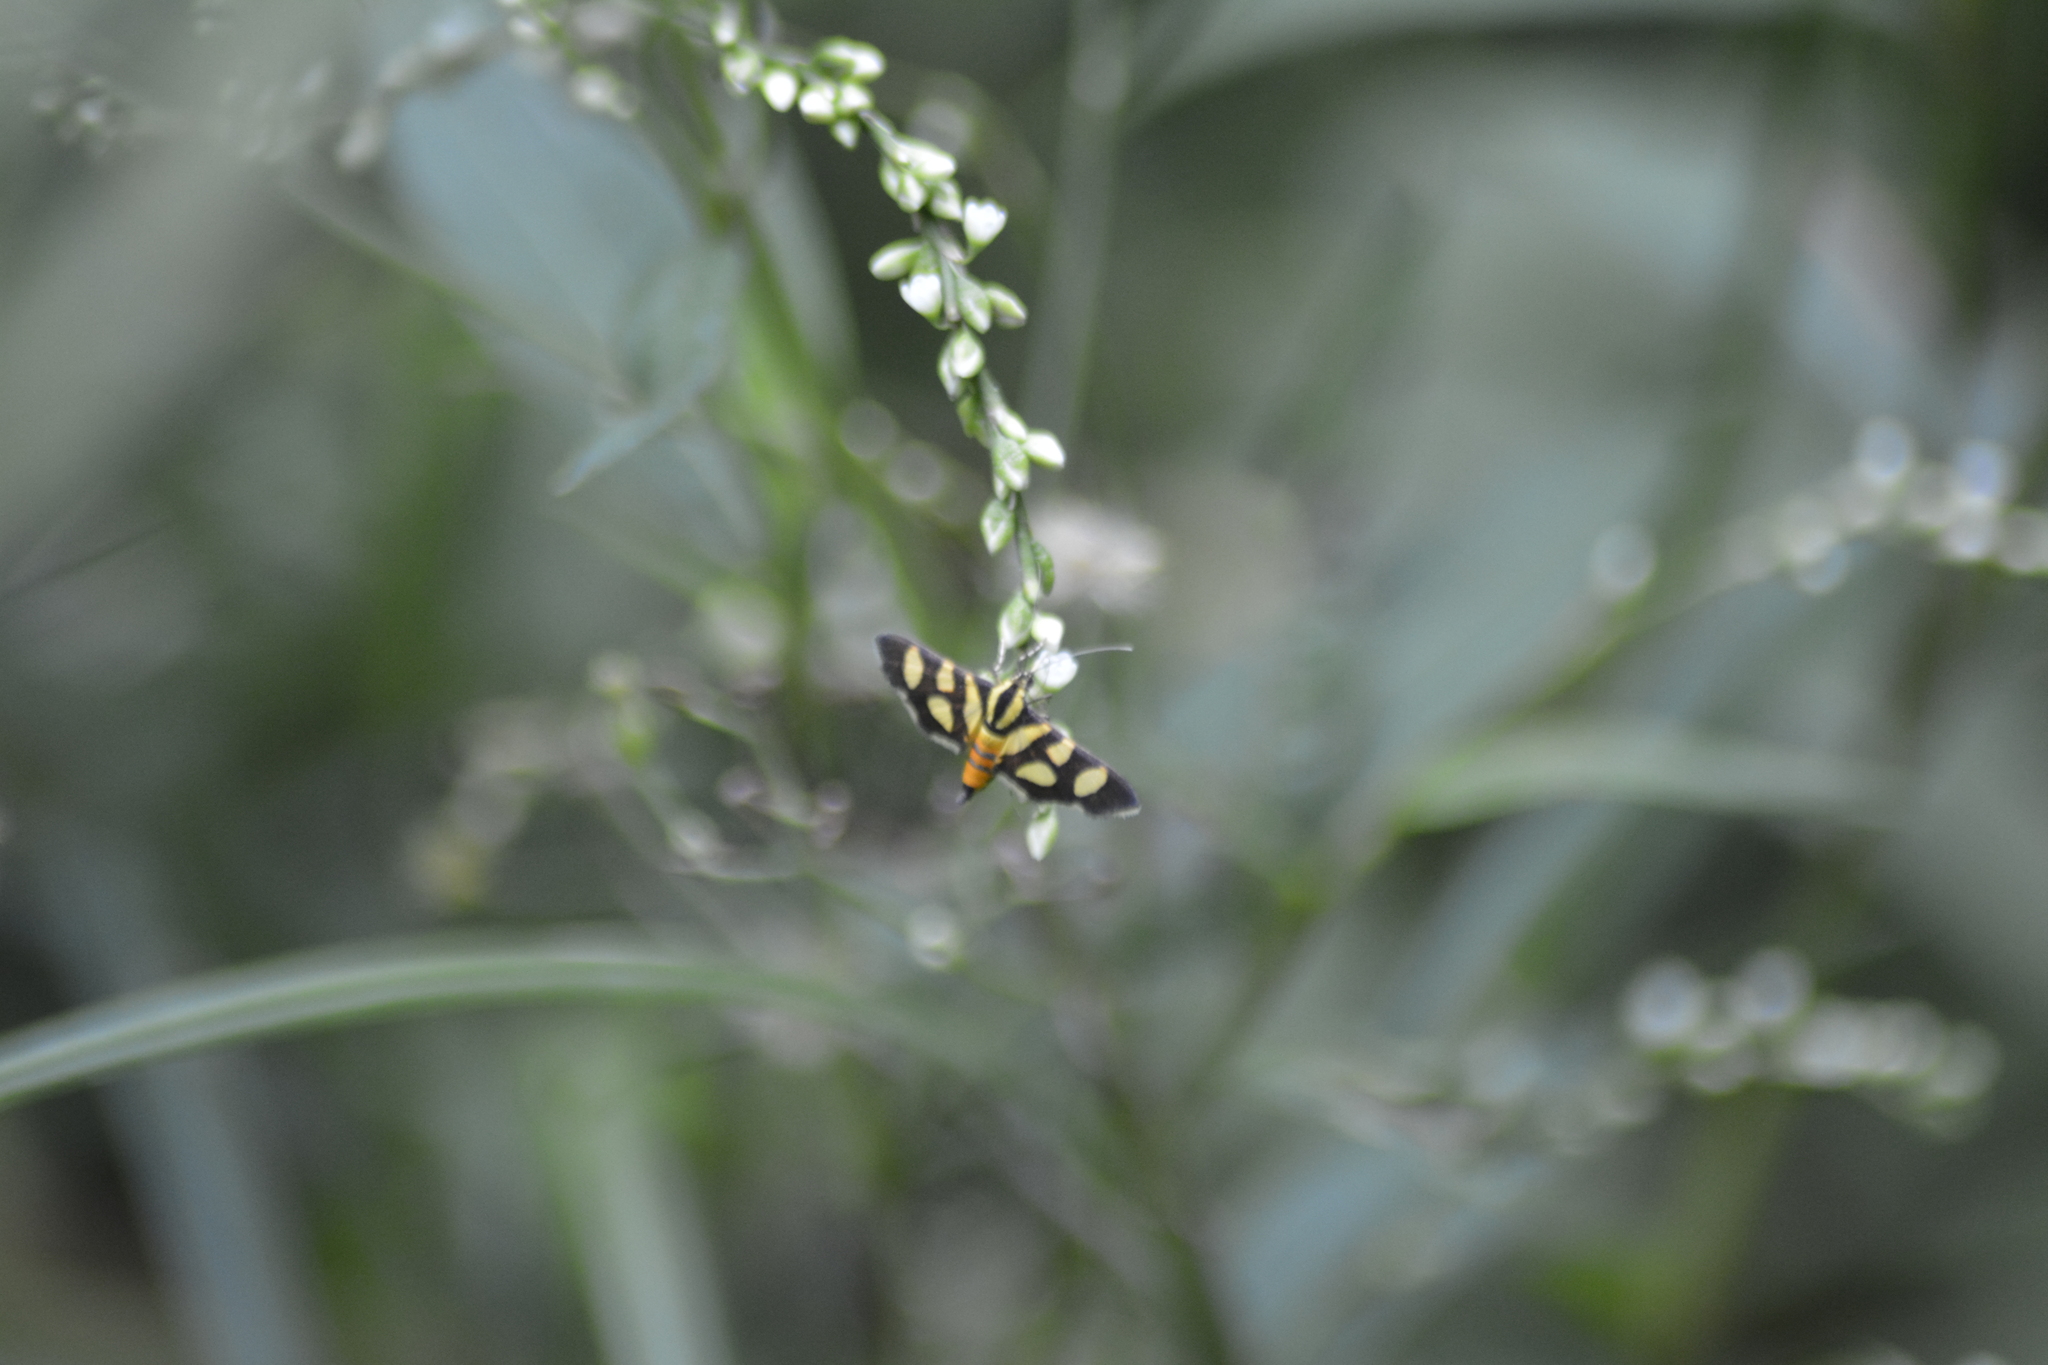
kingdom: Animalia
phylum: Arthropoda
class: Insecta
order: Lepidoptera
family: Crambidae
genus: Syngamia
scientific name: Syngamia florella
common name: Orange-spotted flower moth
